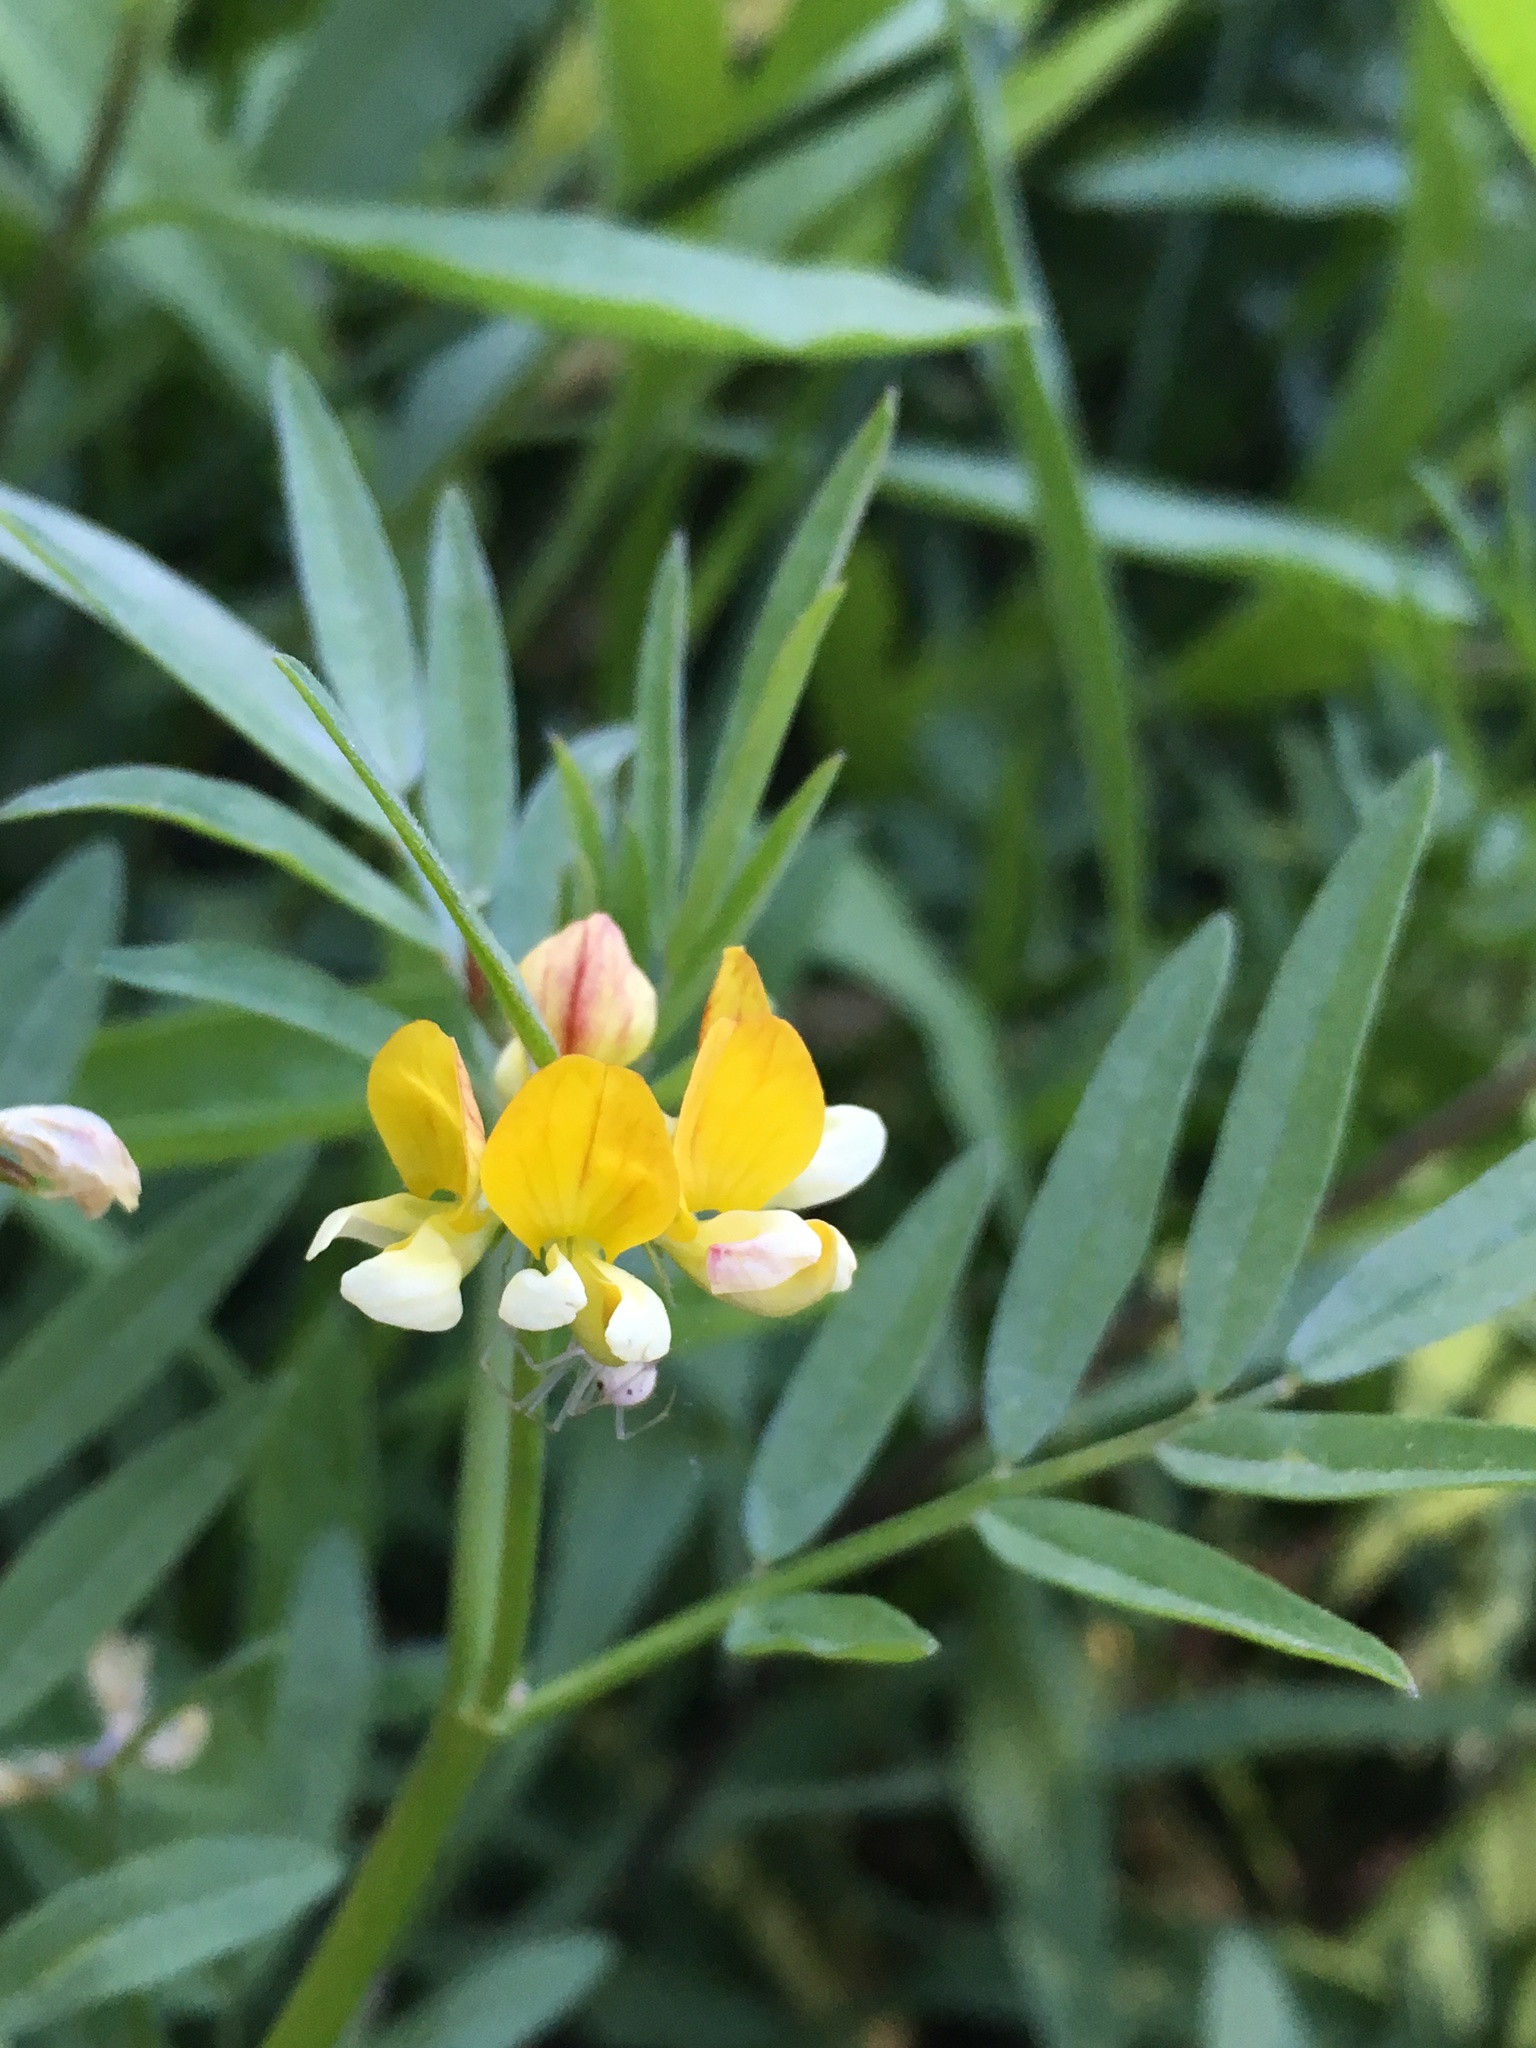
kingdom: Plantae
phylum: Tracheophyta
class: Magnoliopsida
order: Fabales
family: Fabaceae
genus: Hosackia
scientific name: Hosackia oblongifolia
